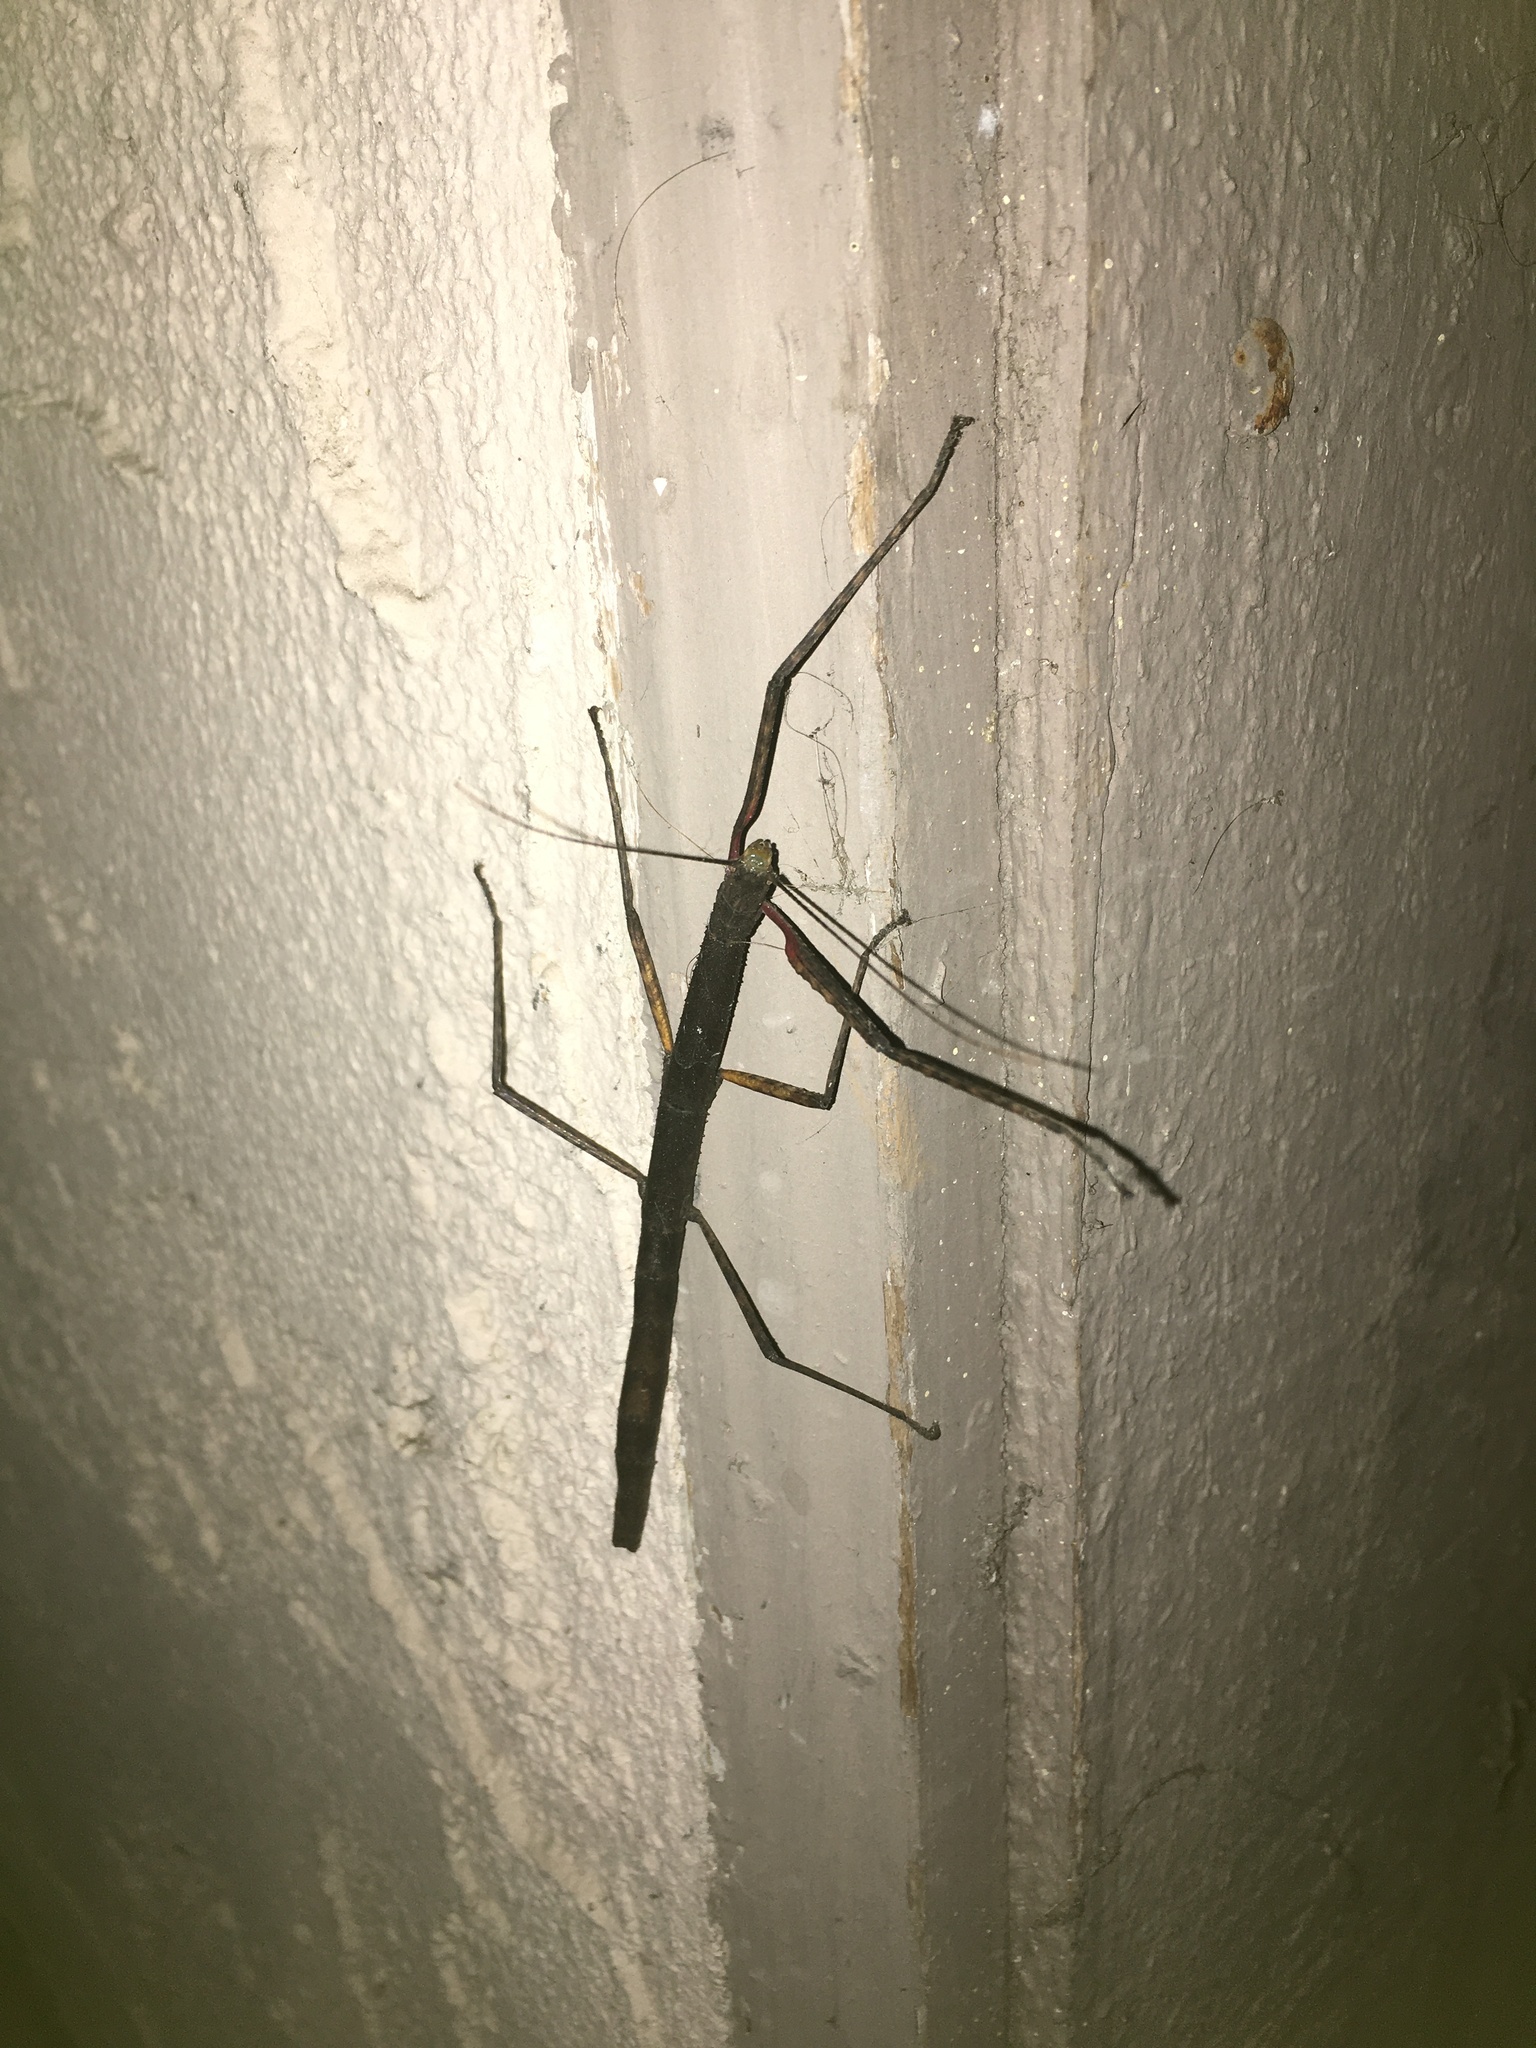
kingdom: Animalia
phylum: Arthropoda
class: Insecta
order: Phasmida
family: Lonchodidae
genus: Carausius
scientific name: Carausius morosus
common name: Indian stick insect
